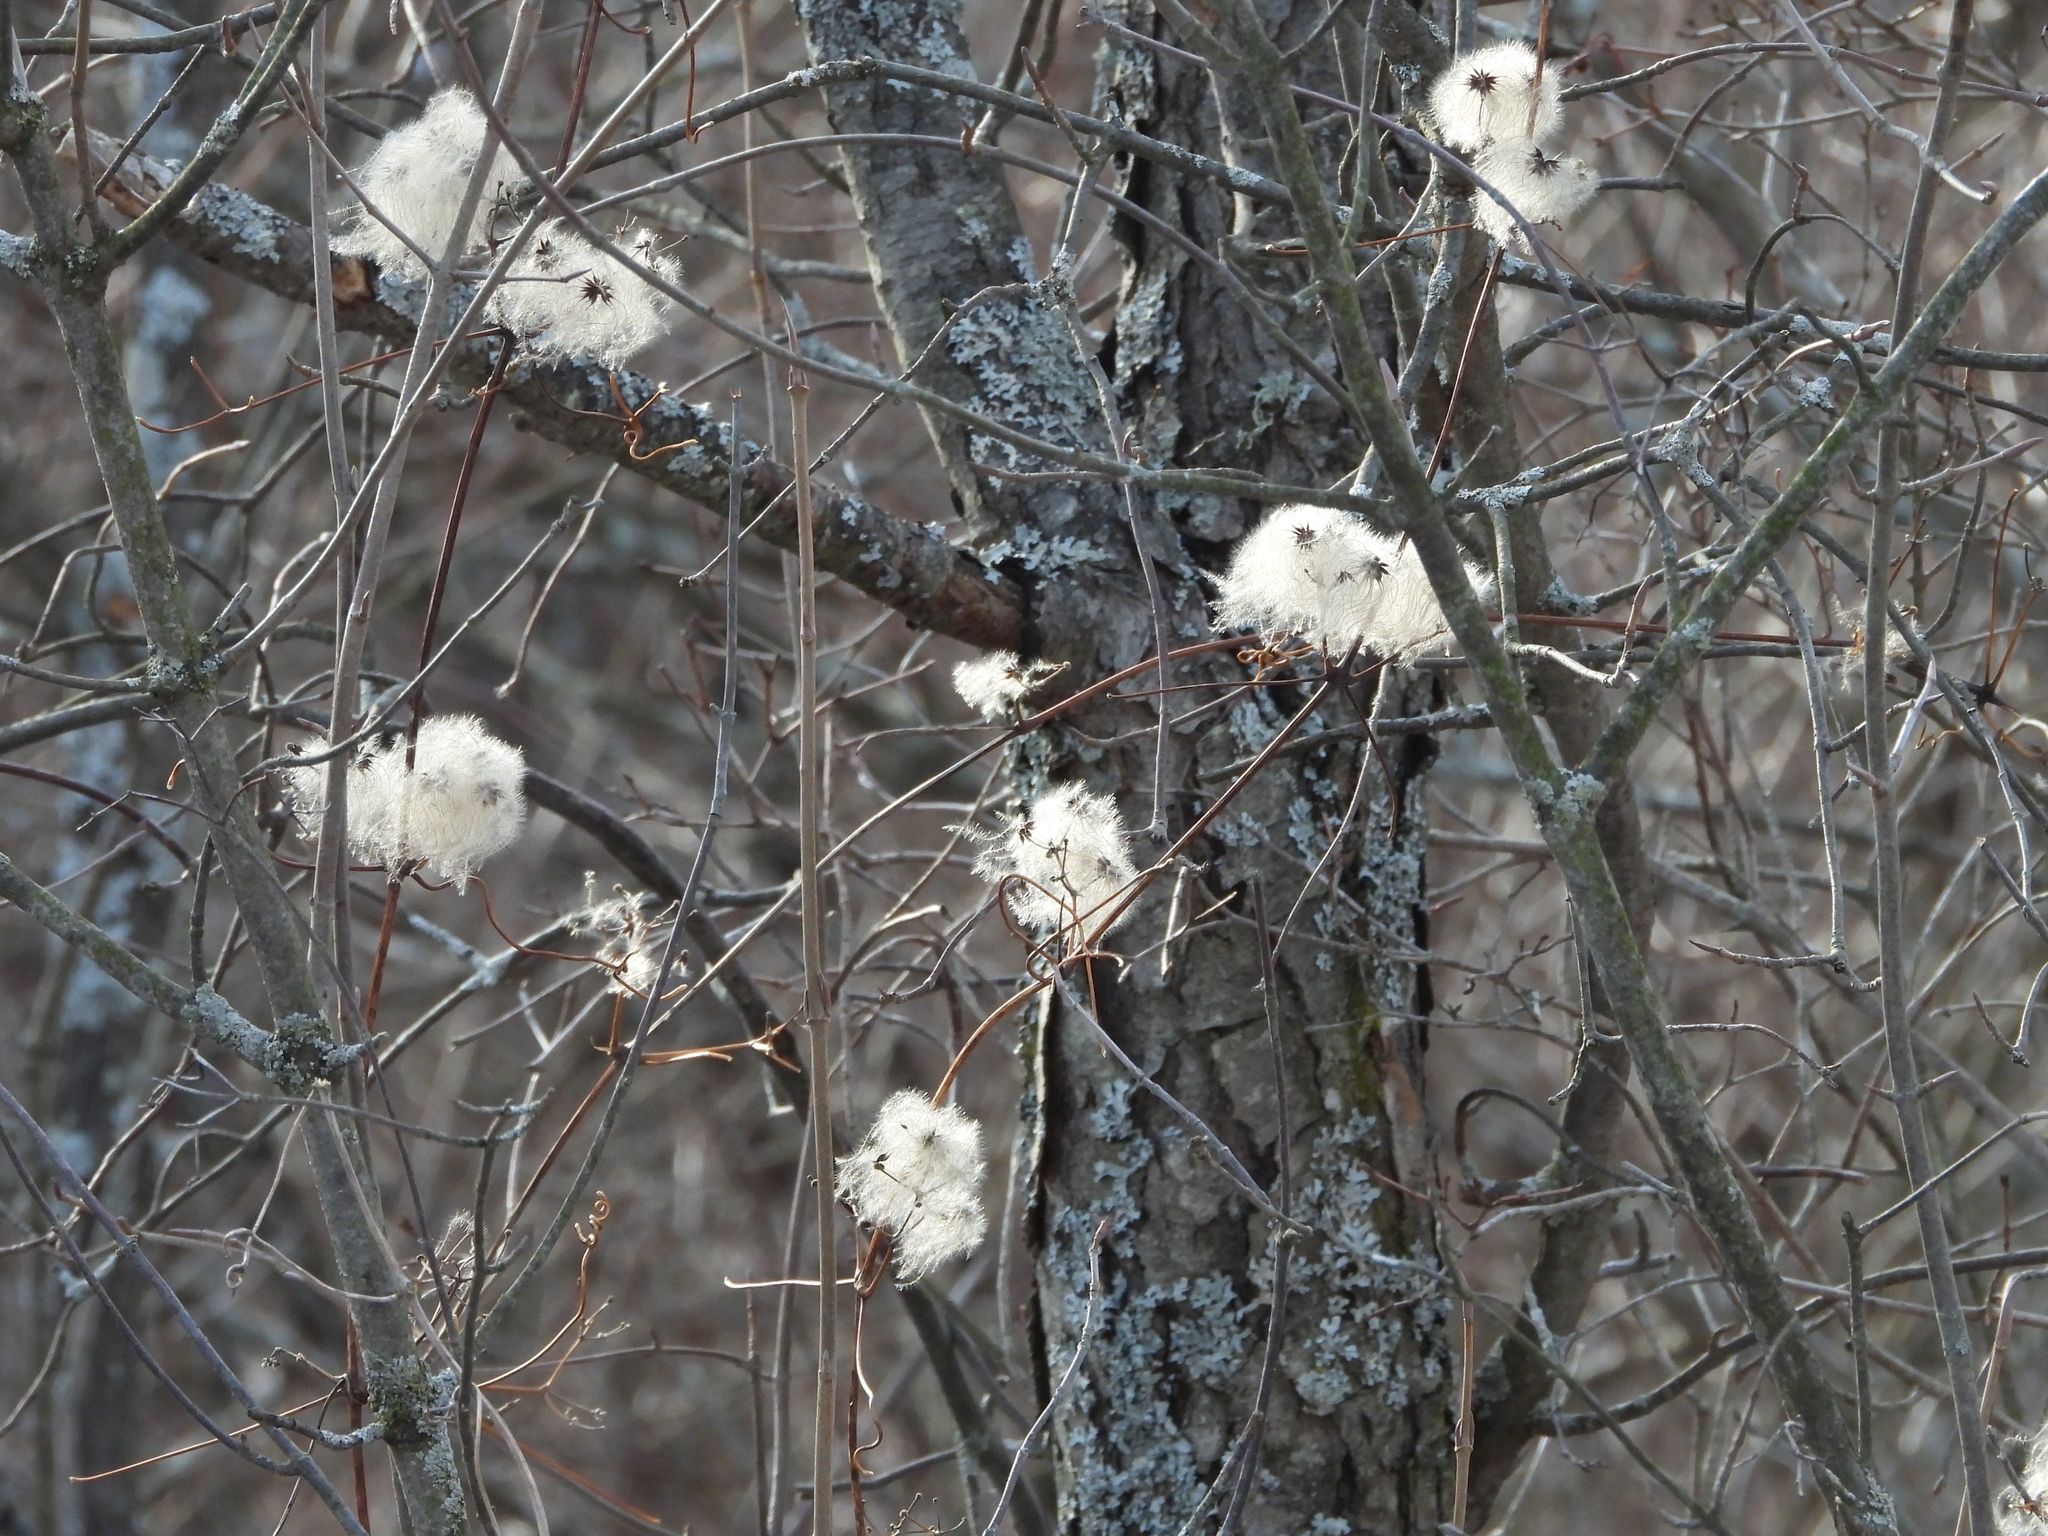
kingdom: Plantae
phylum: Tracheophyta
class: Magnoliopsida
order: Ranunculales
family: Ranunculaceae
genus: Clematis
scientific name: Clematis virginiana
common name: Virgin's-bower
